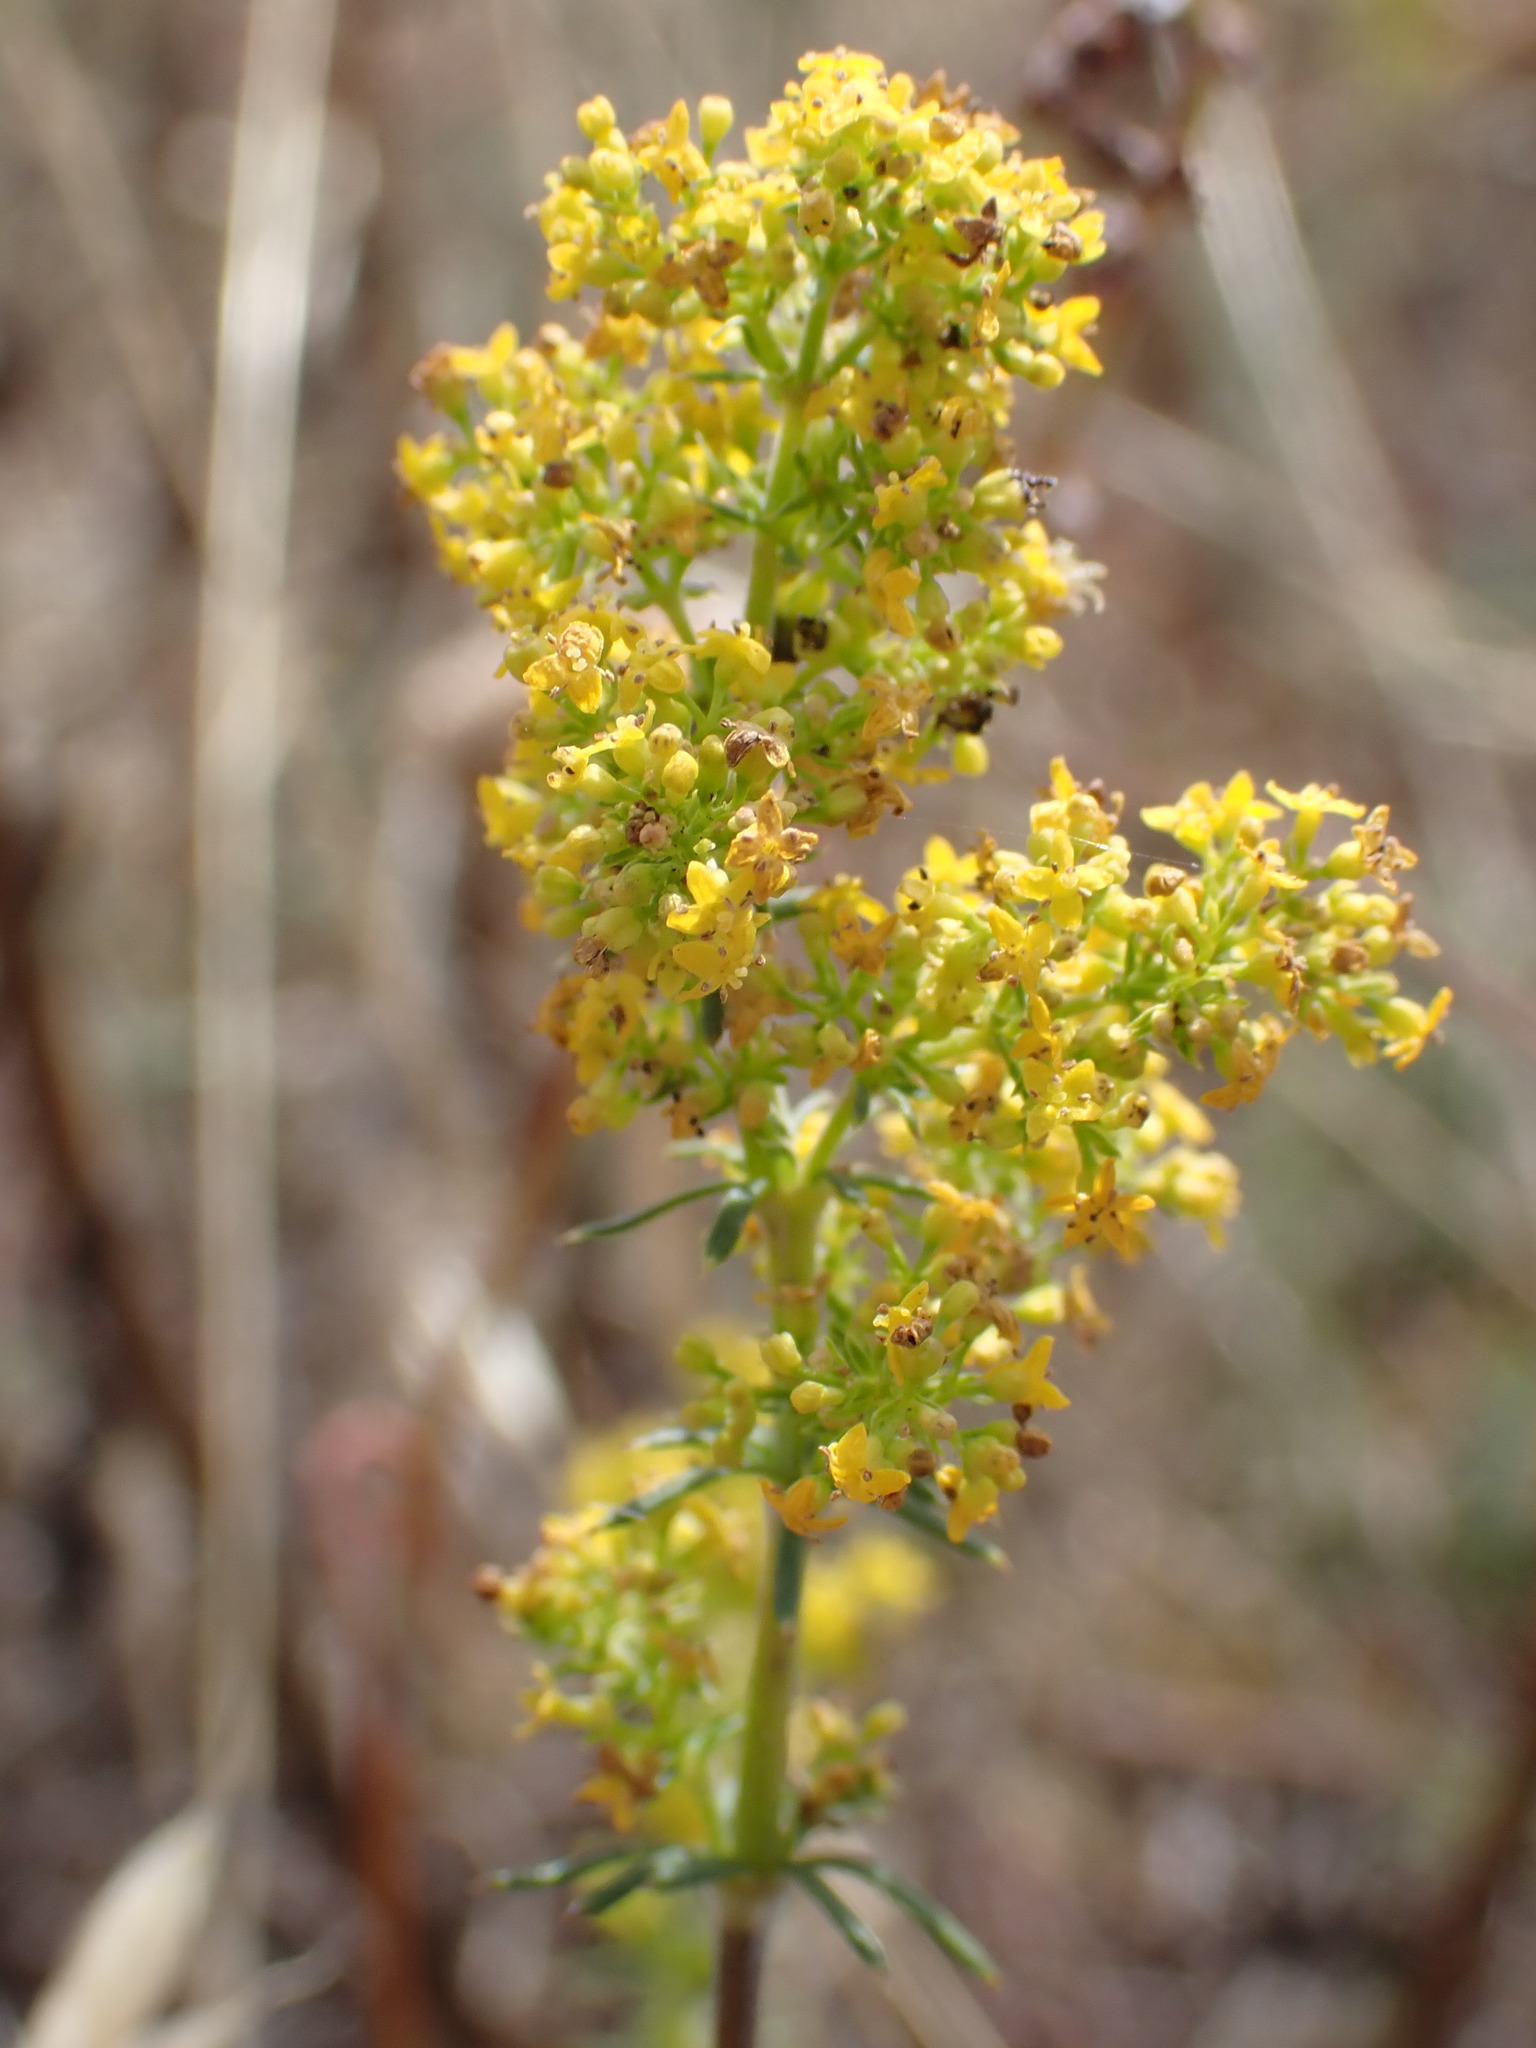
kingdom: Plantae
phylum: Tracheophyta
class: Magnoliopsida
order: Gentianales
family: Rubiaceae
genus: Galium
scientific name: Galium verum
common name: Lady's bedstraw
